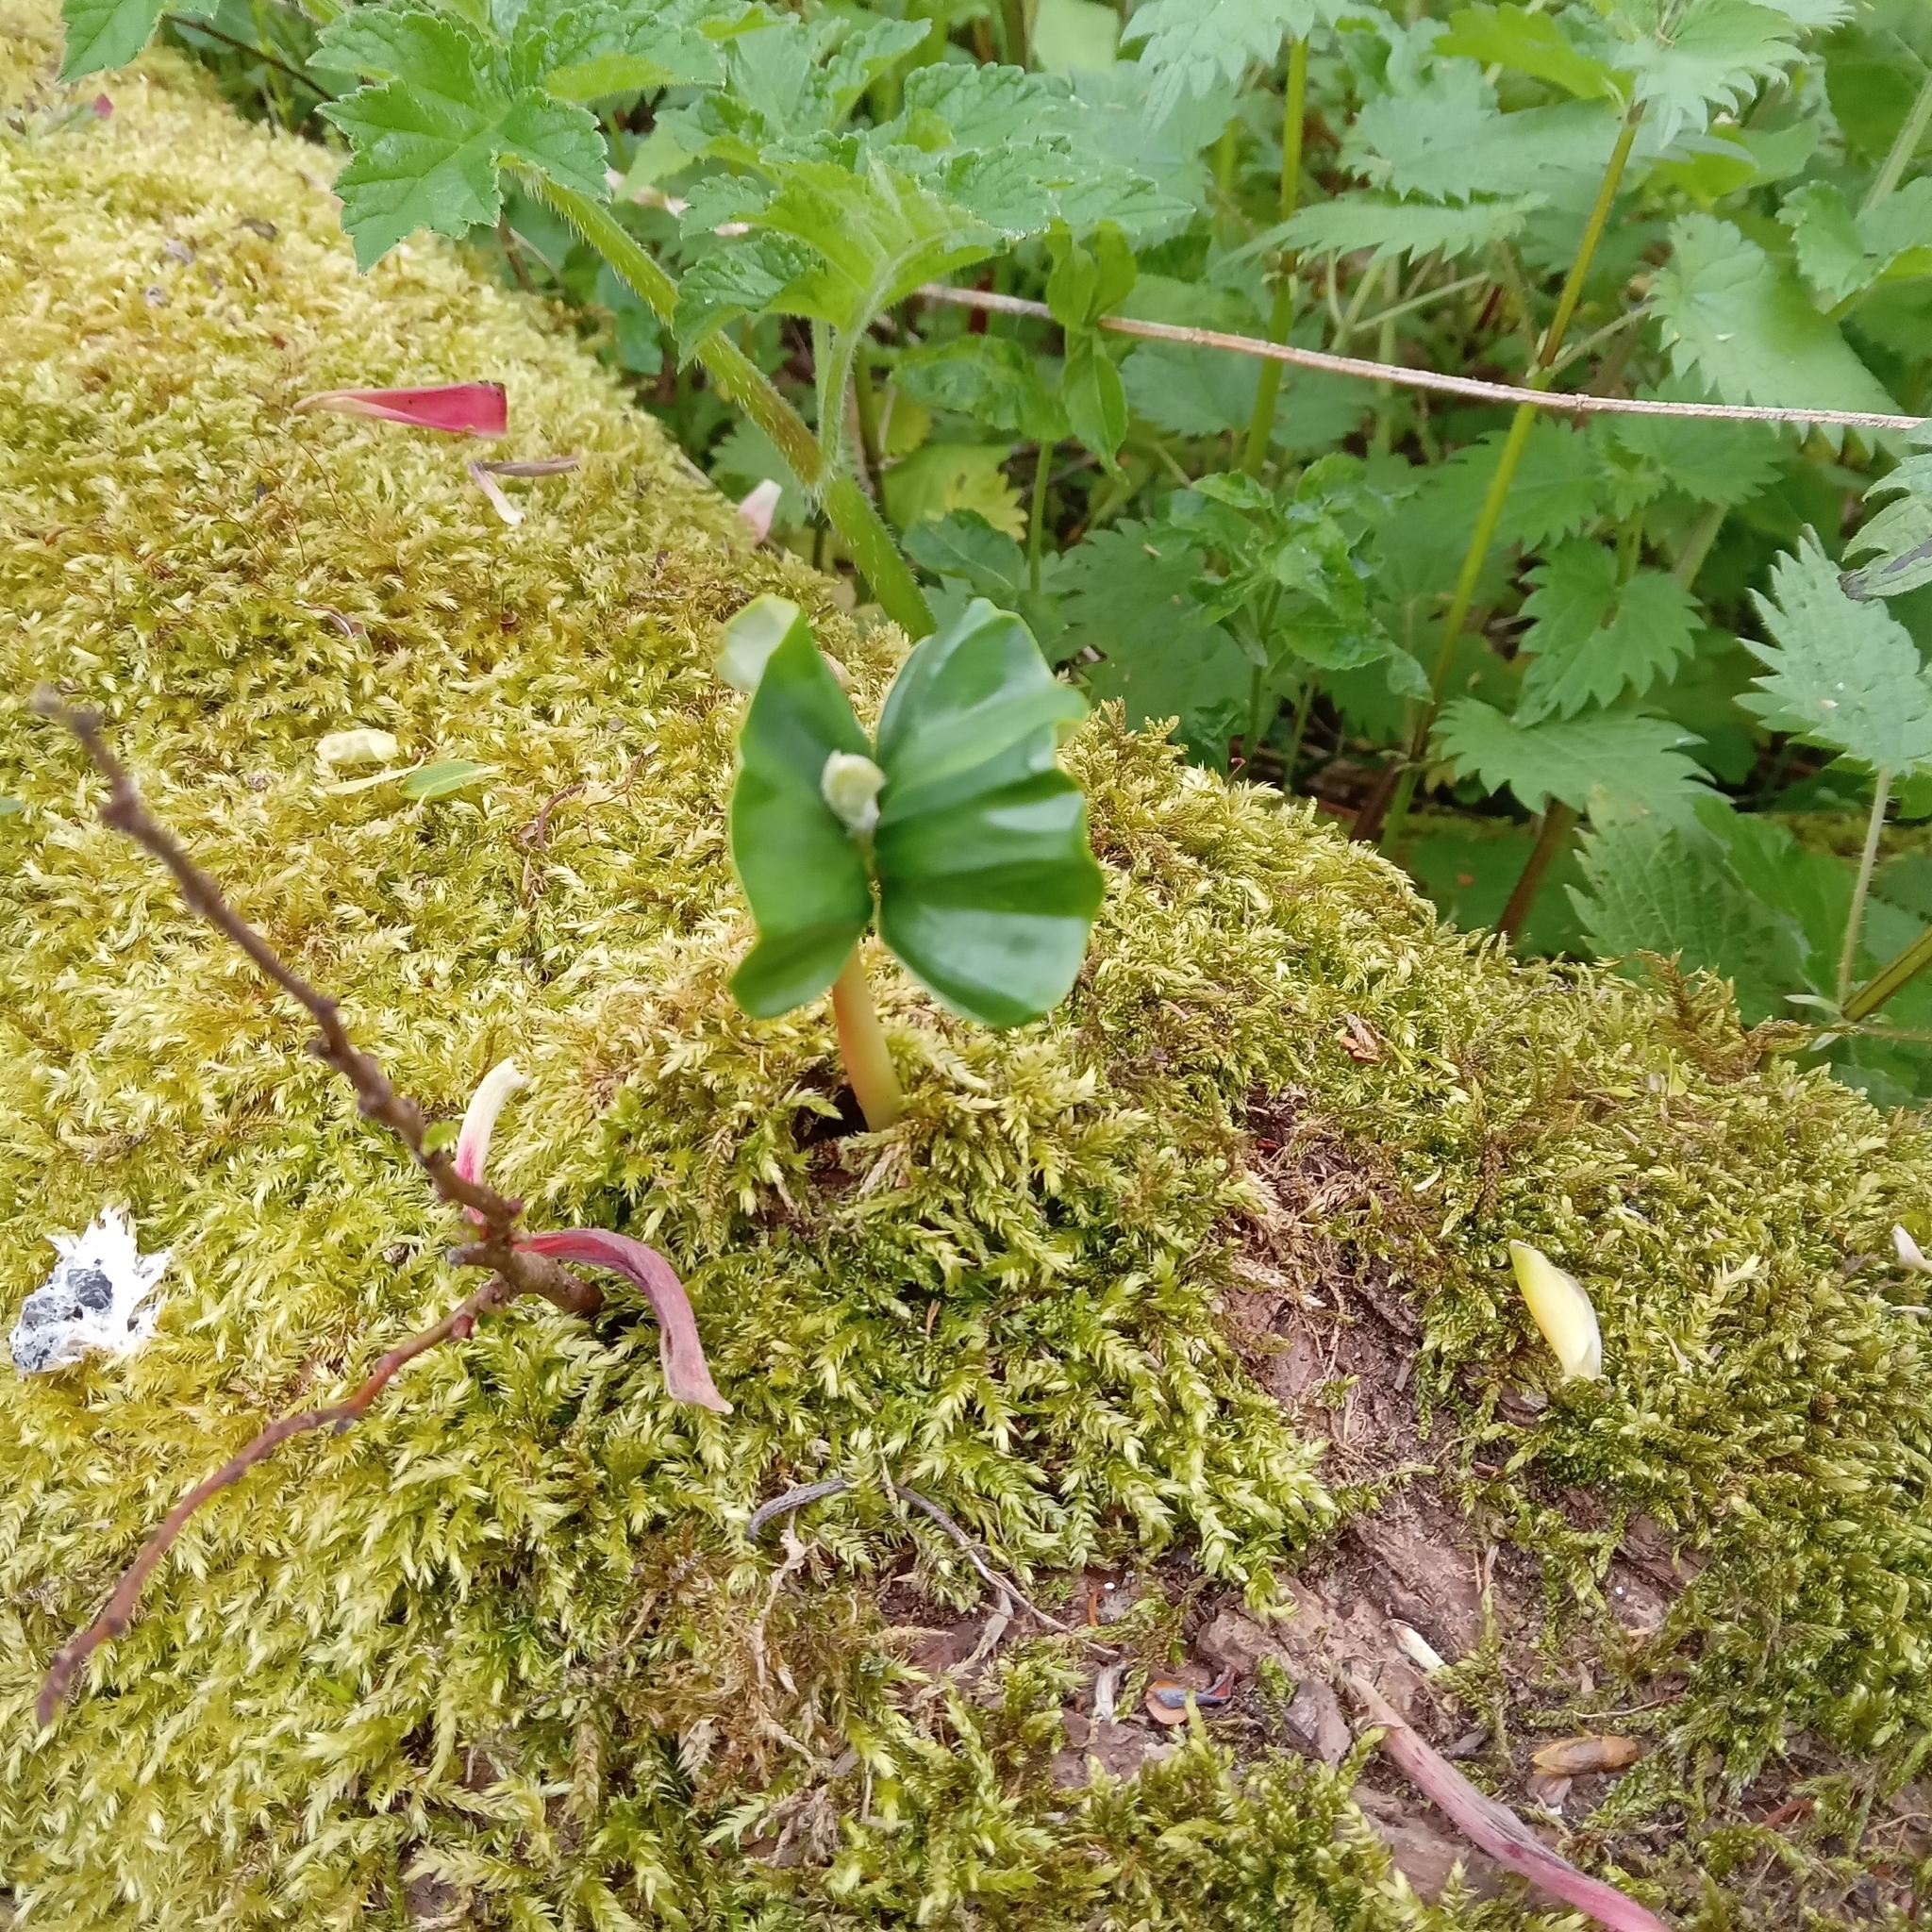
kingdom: Plantae
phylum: Tracheophyta
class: Magnoliopsida
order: Fagales
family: Fagaceae
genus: Fagus
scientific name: Fagus sylvatica
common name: Beech
